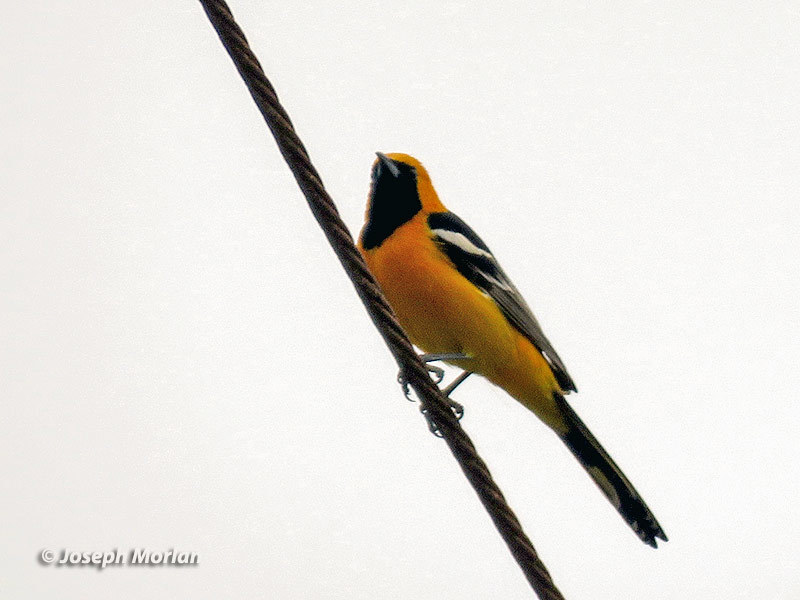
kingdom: Animalia
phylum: Chordata
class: Aves
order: Passeriformes
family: Icteridae
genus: Icterus
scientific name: Icterus cucullatus
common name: Hooded oriole
